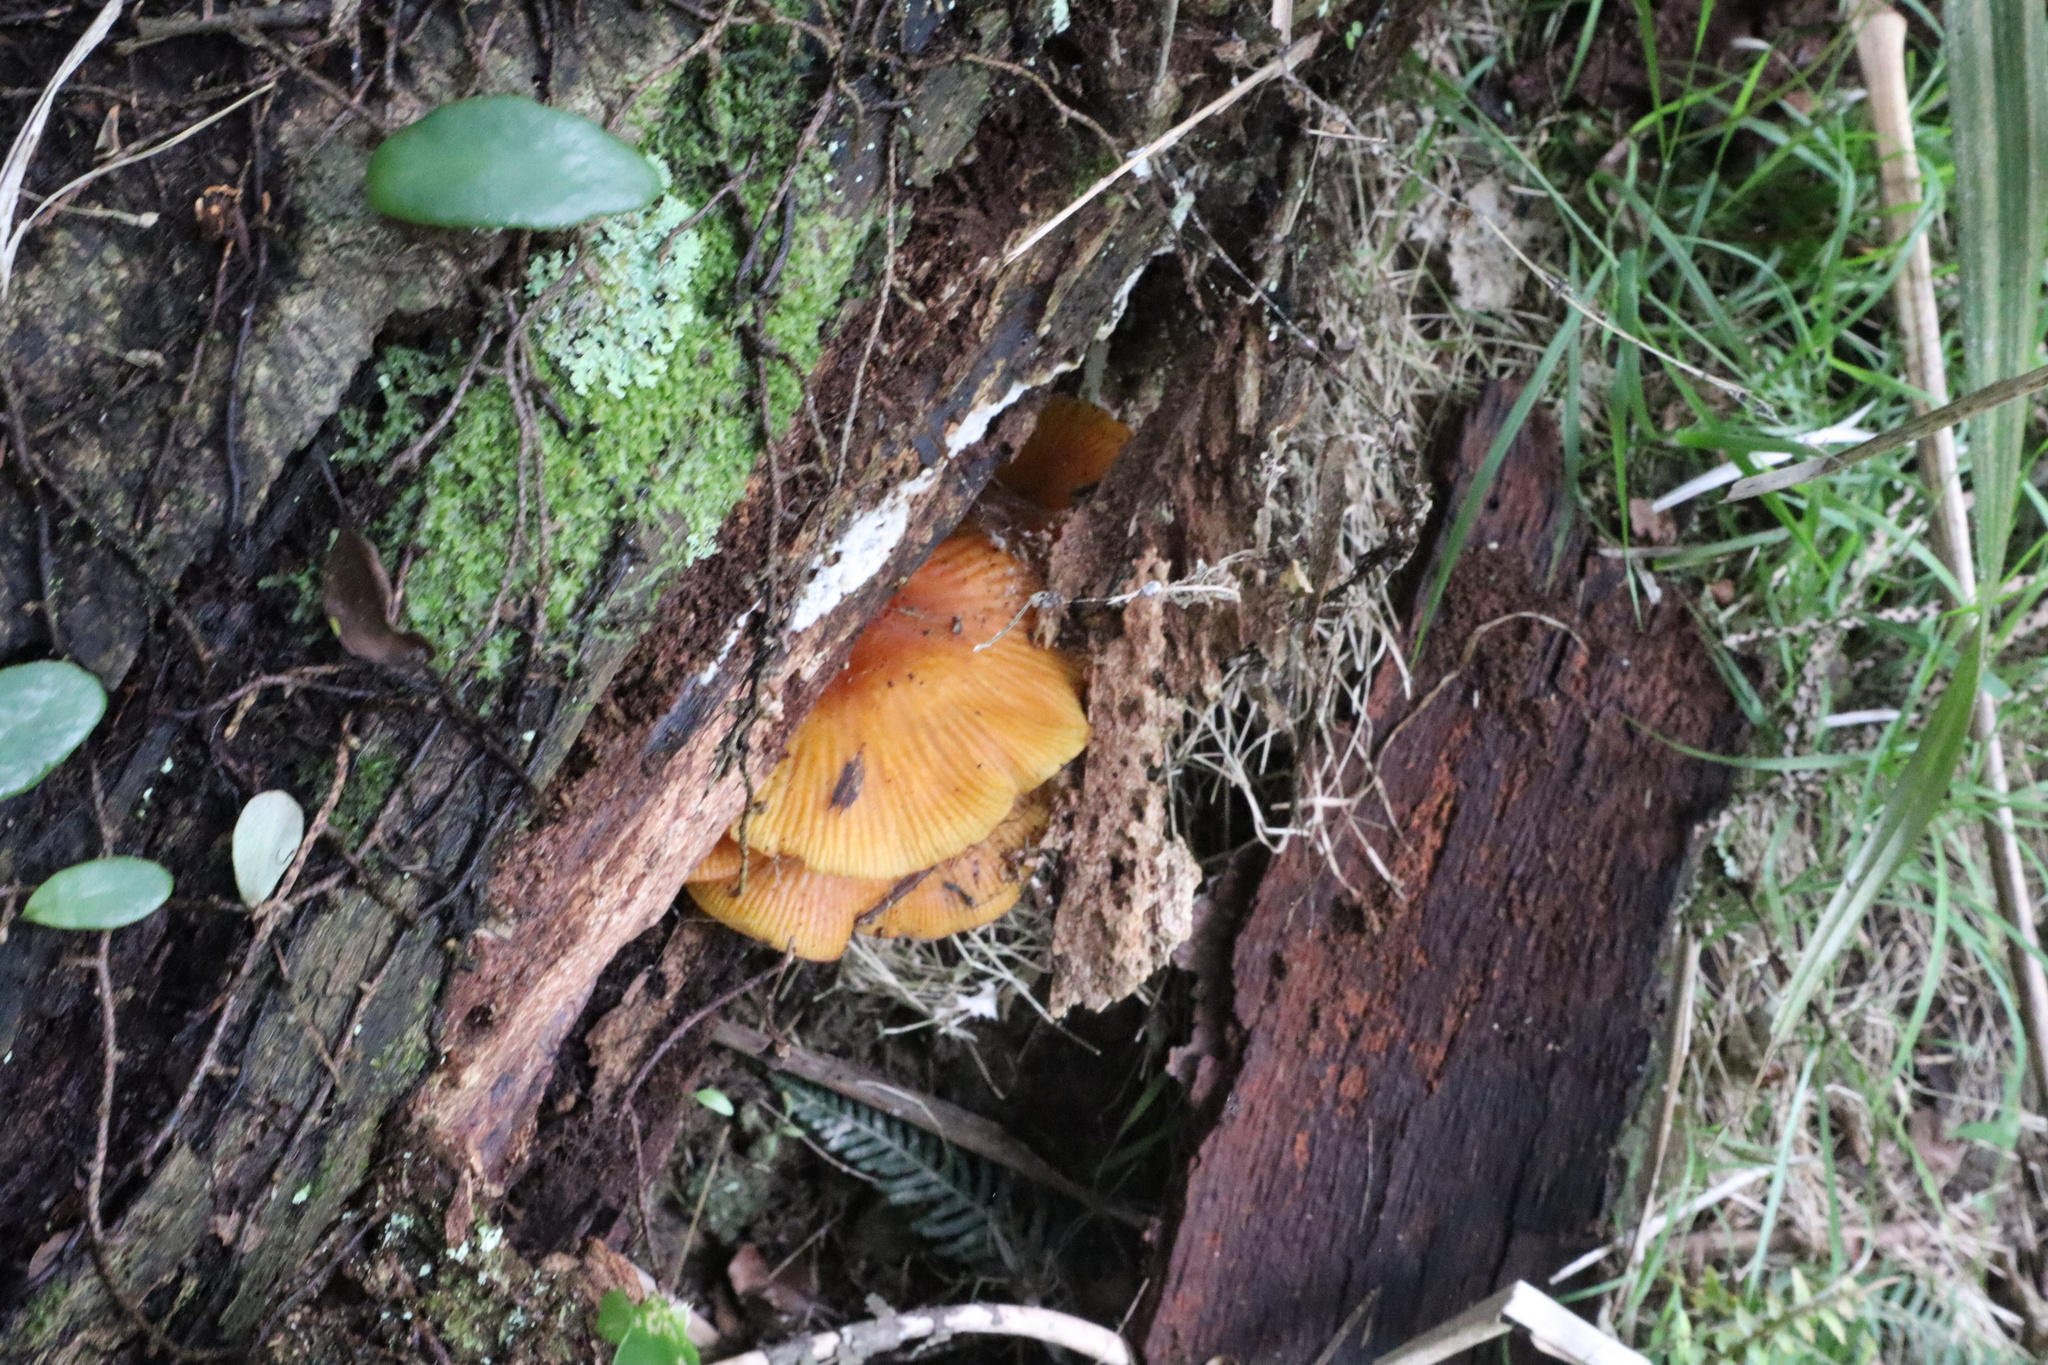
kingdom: Fungi
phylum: Basidiomycota
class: Agaricomycetes
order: Agaricales
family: Mycenaceae
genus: Heimiomyces
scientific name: Heimiomyces velutipes
